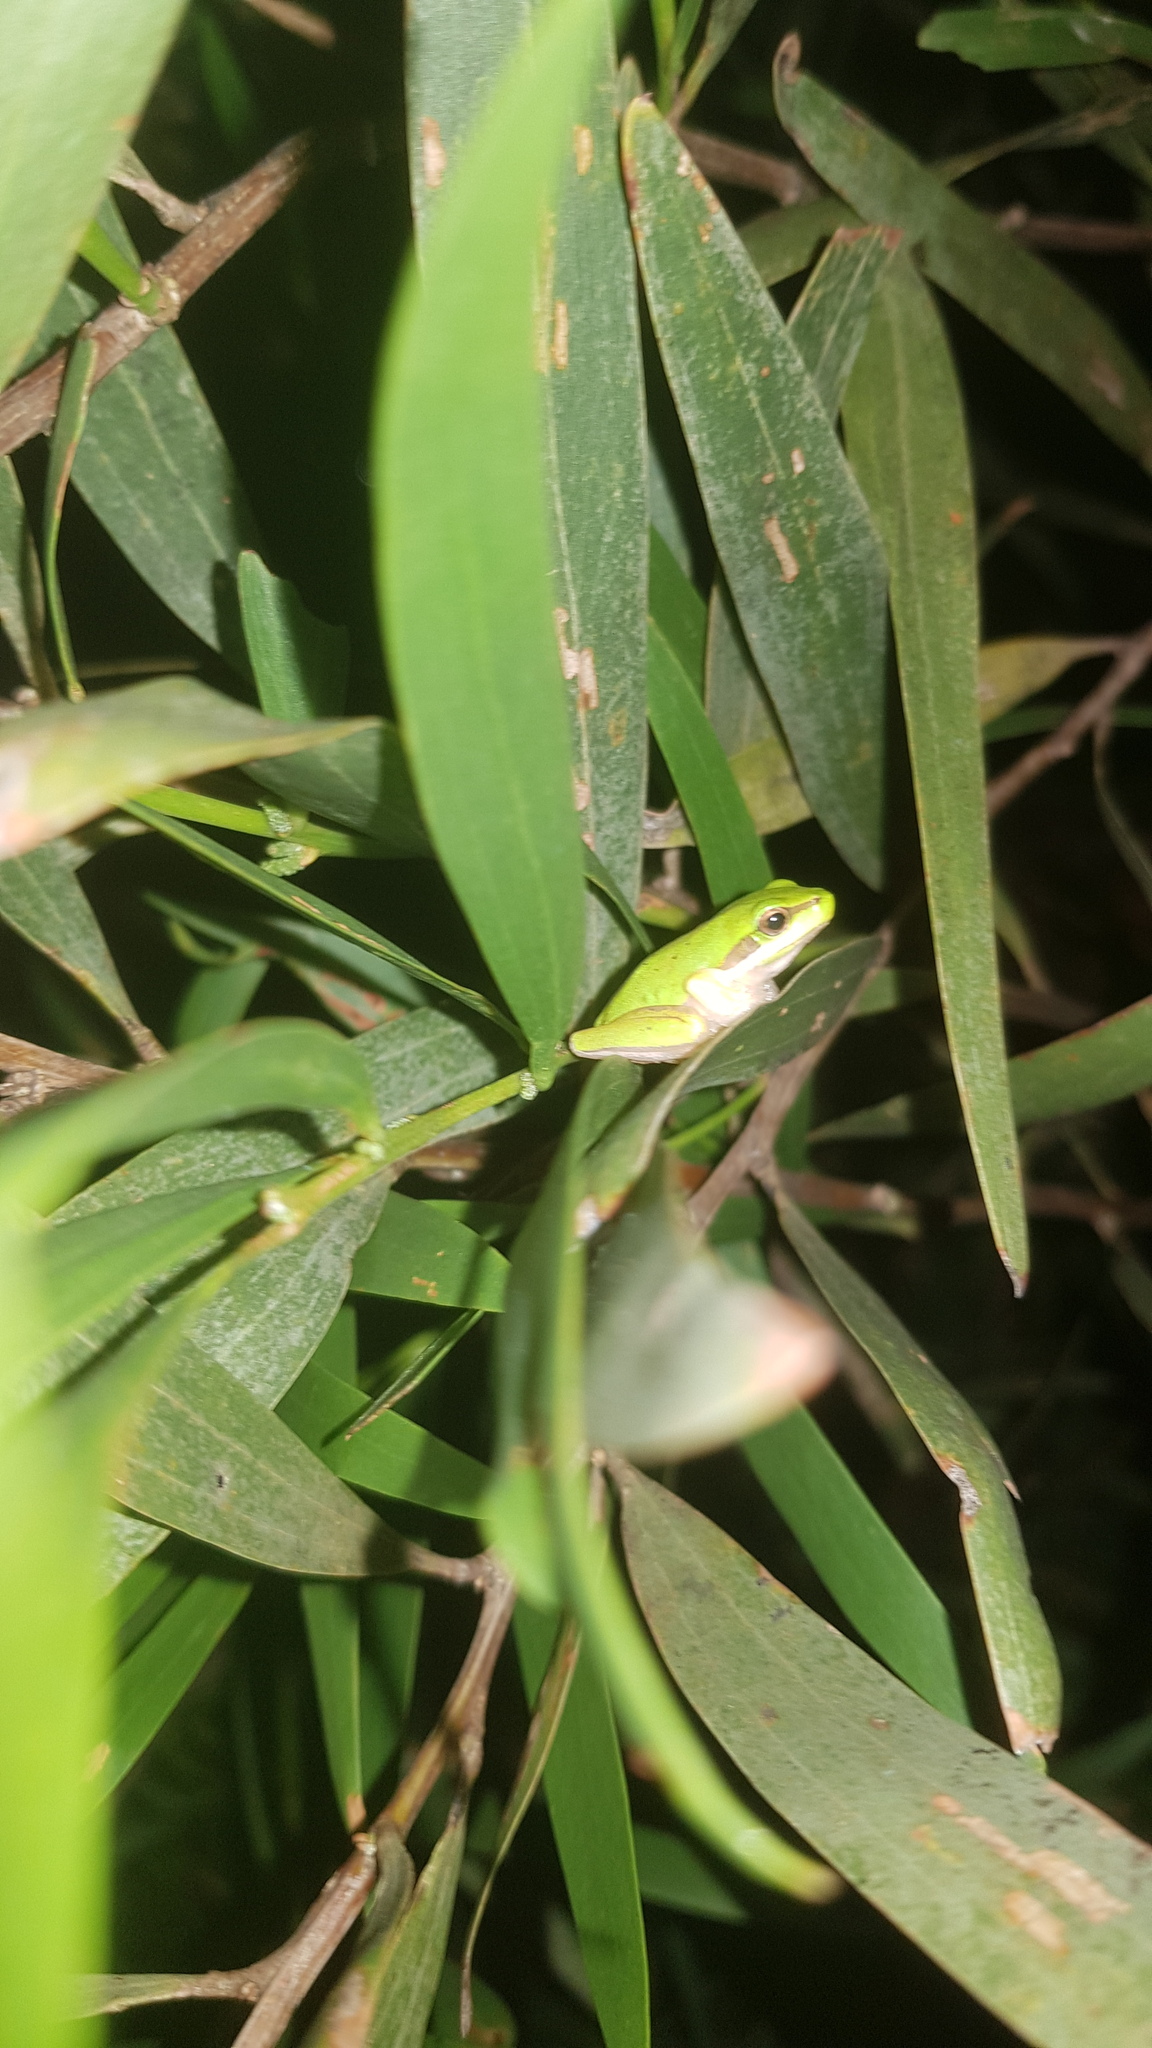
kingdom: Animalia
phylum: Chordata
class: Amphibia
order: Anura
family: Pelodryadidae
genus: Litoria
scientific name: Litoria fallax
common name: Eastern dwarf treefrog
